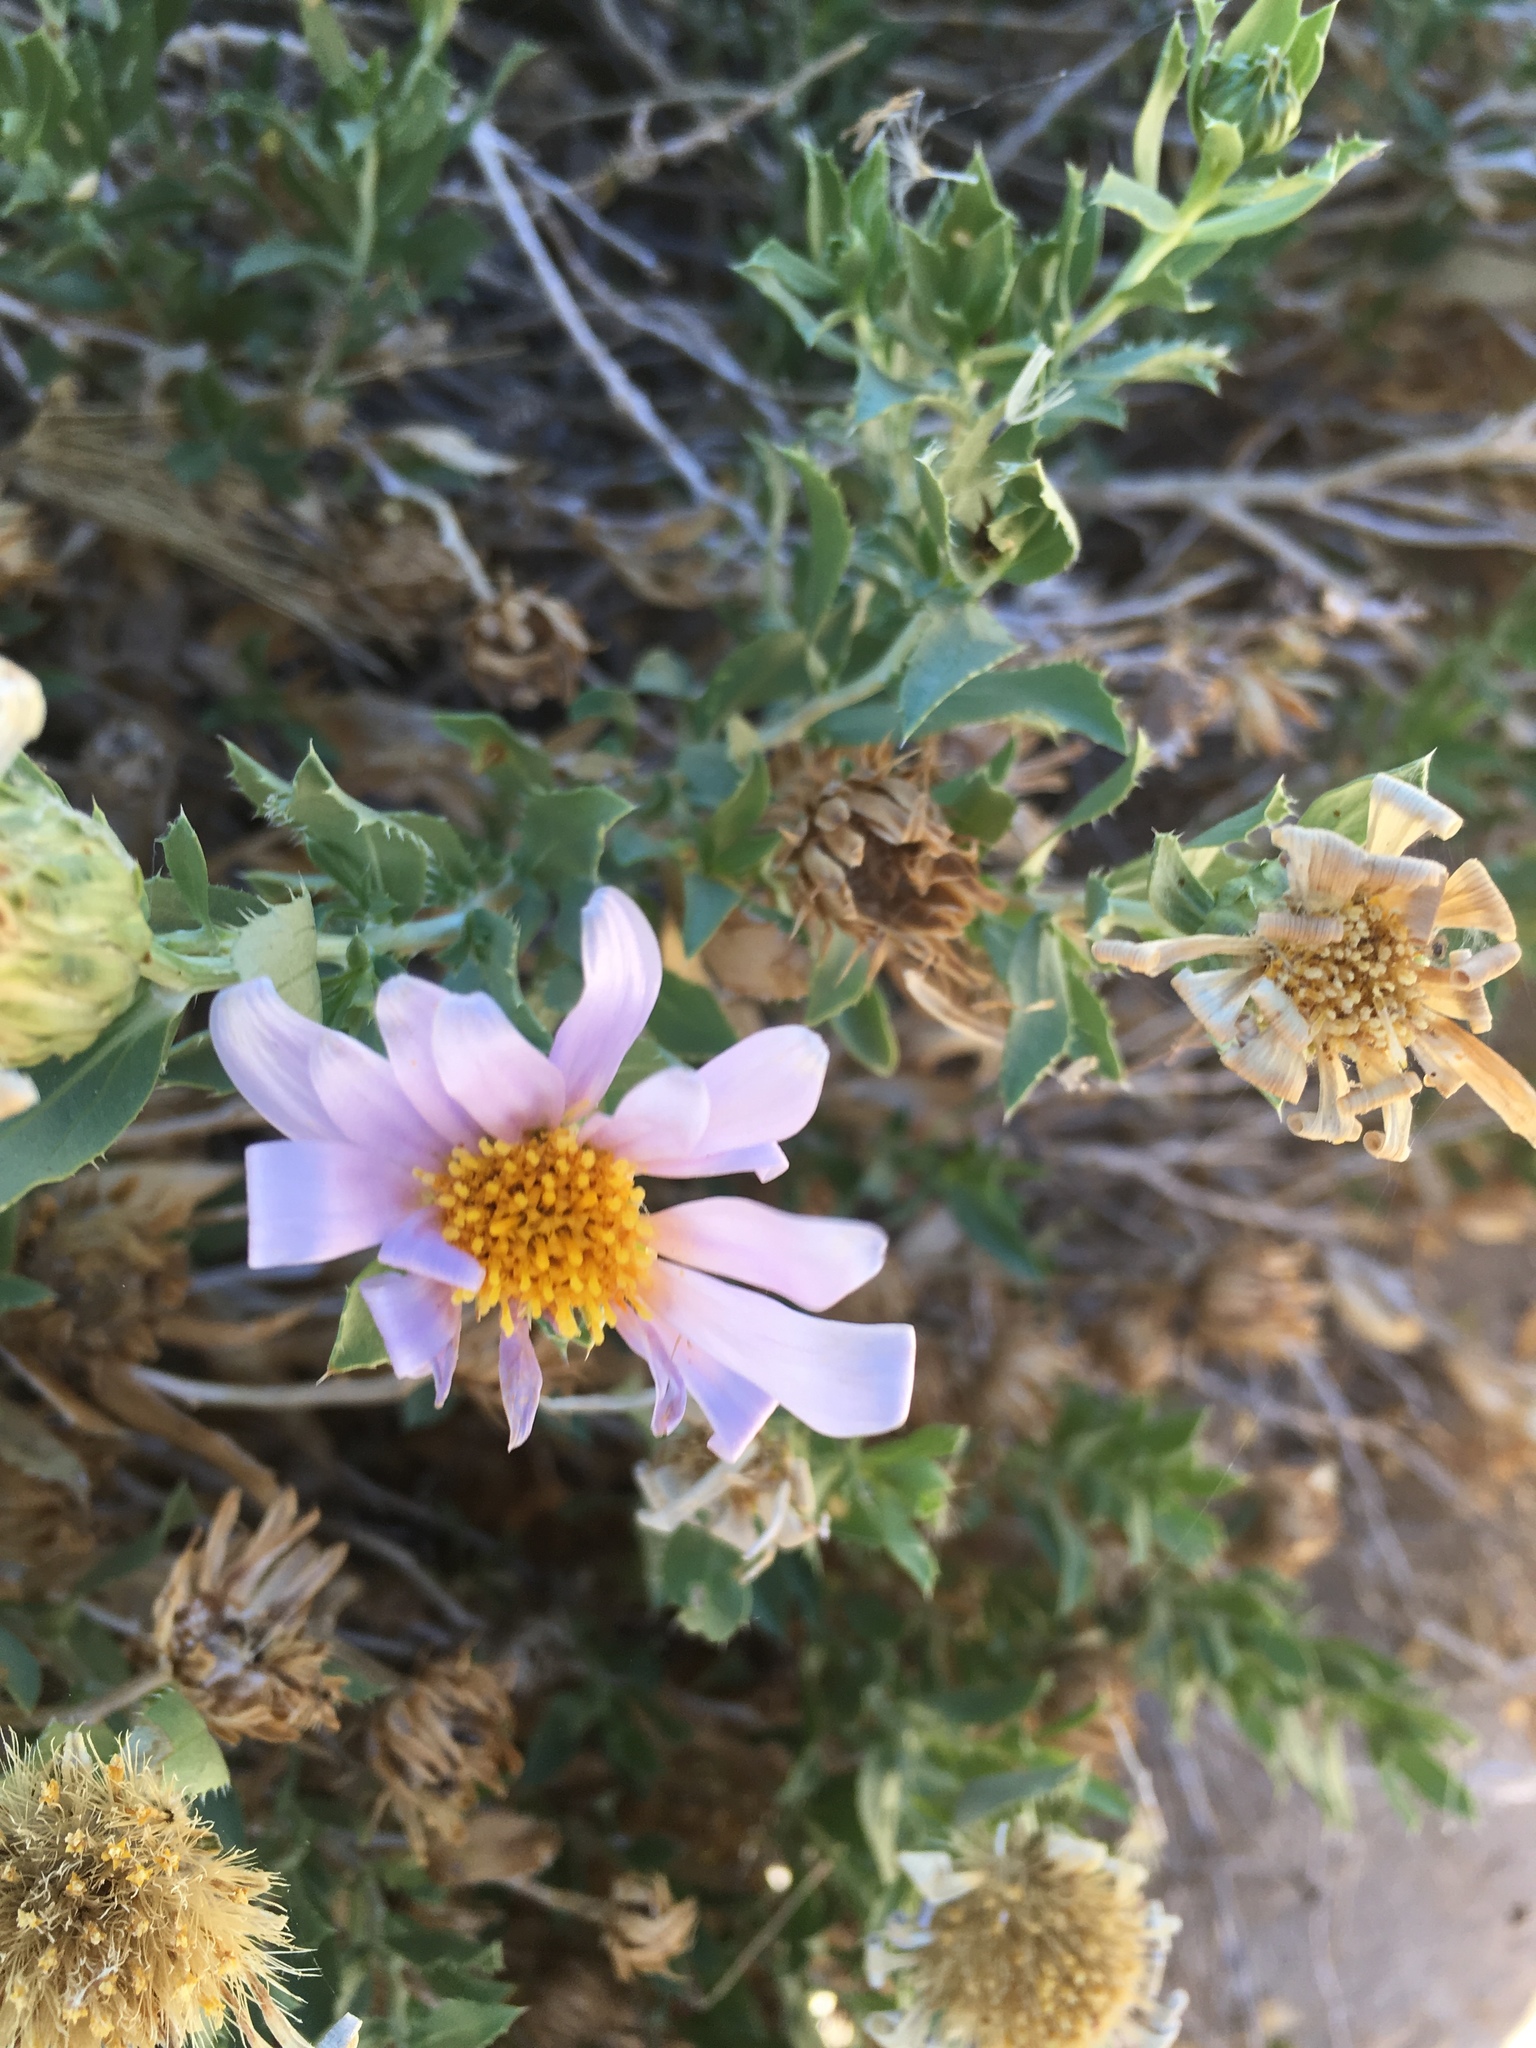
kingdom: Plantae
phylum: Tracheophyta
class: Magnoliopsida
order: Asterales
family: Asteraceae
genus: Xylorhiza
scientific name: Xylorhiza orcuttii
